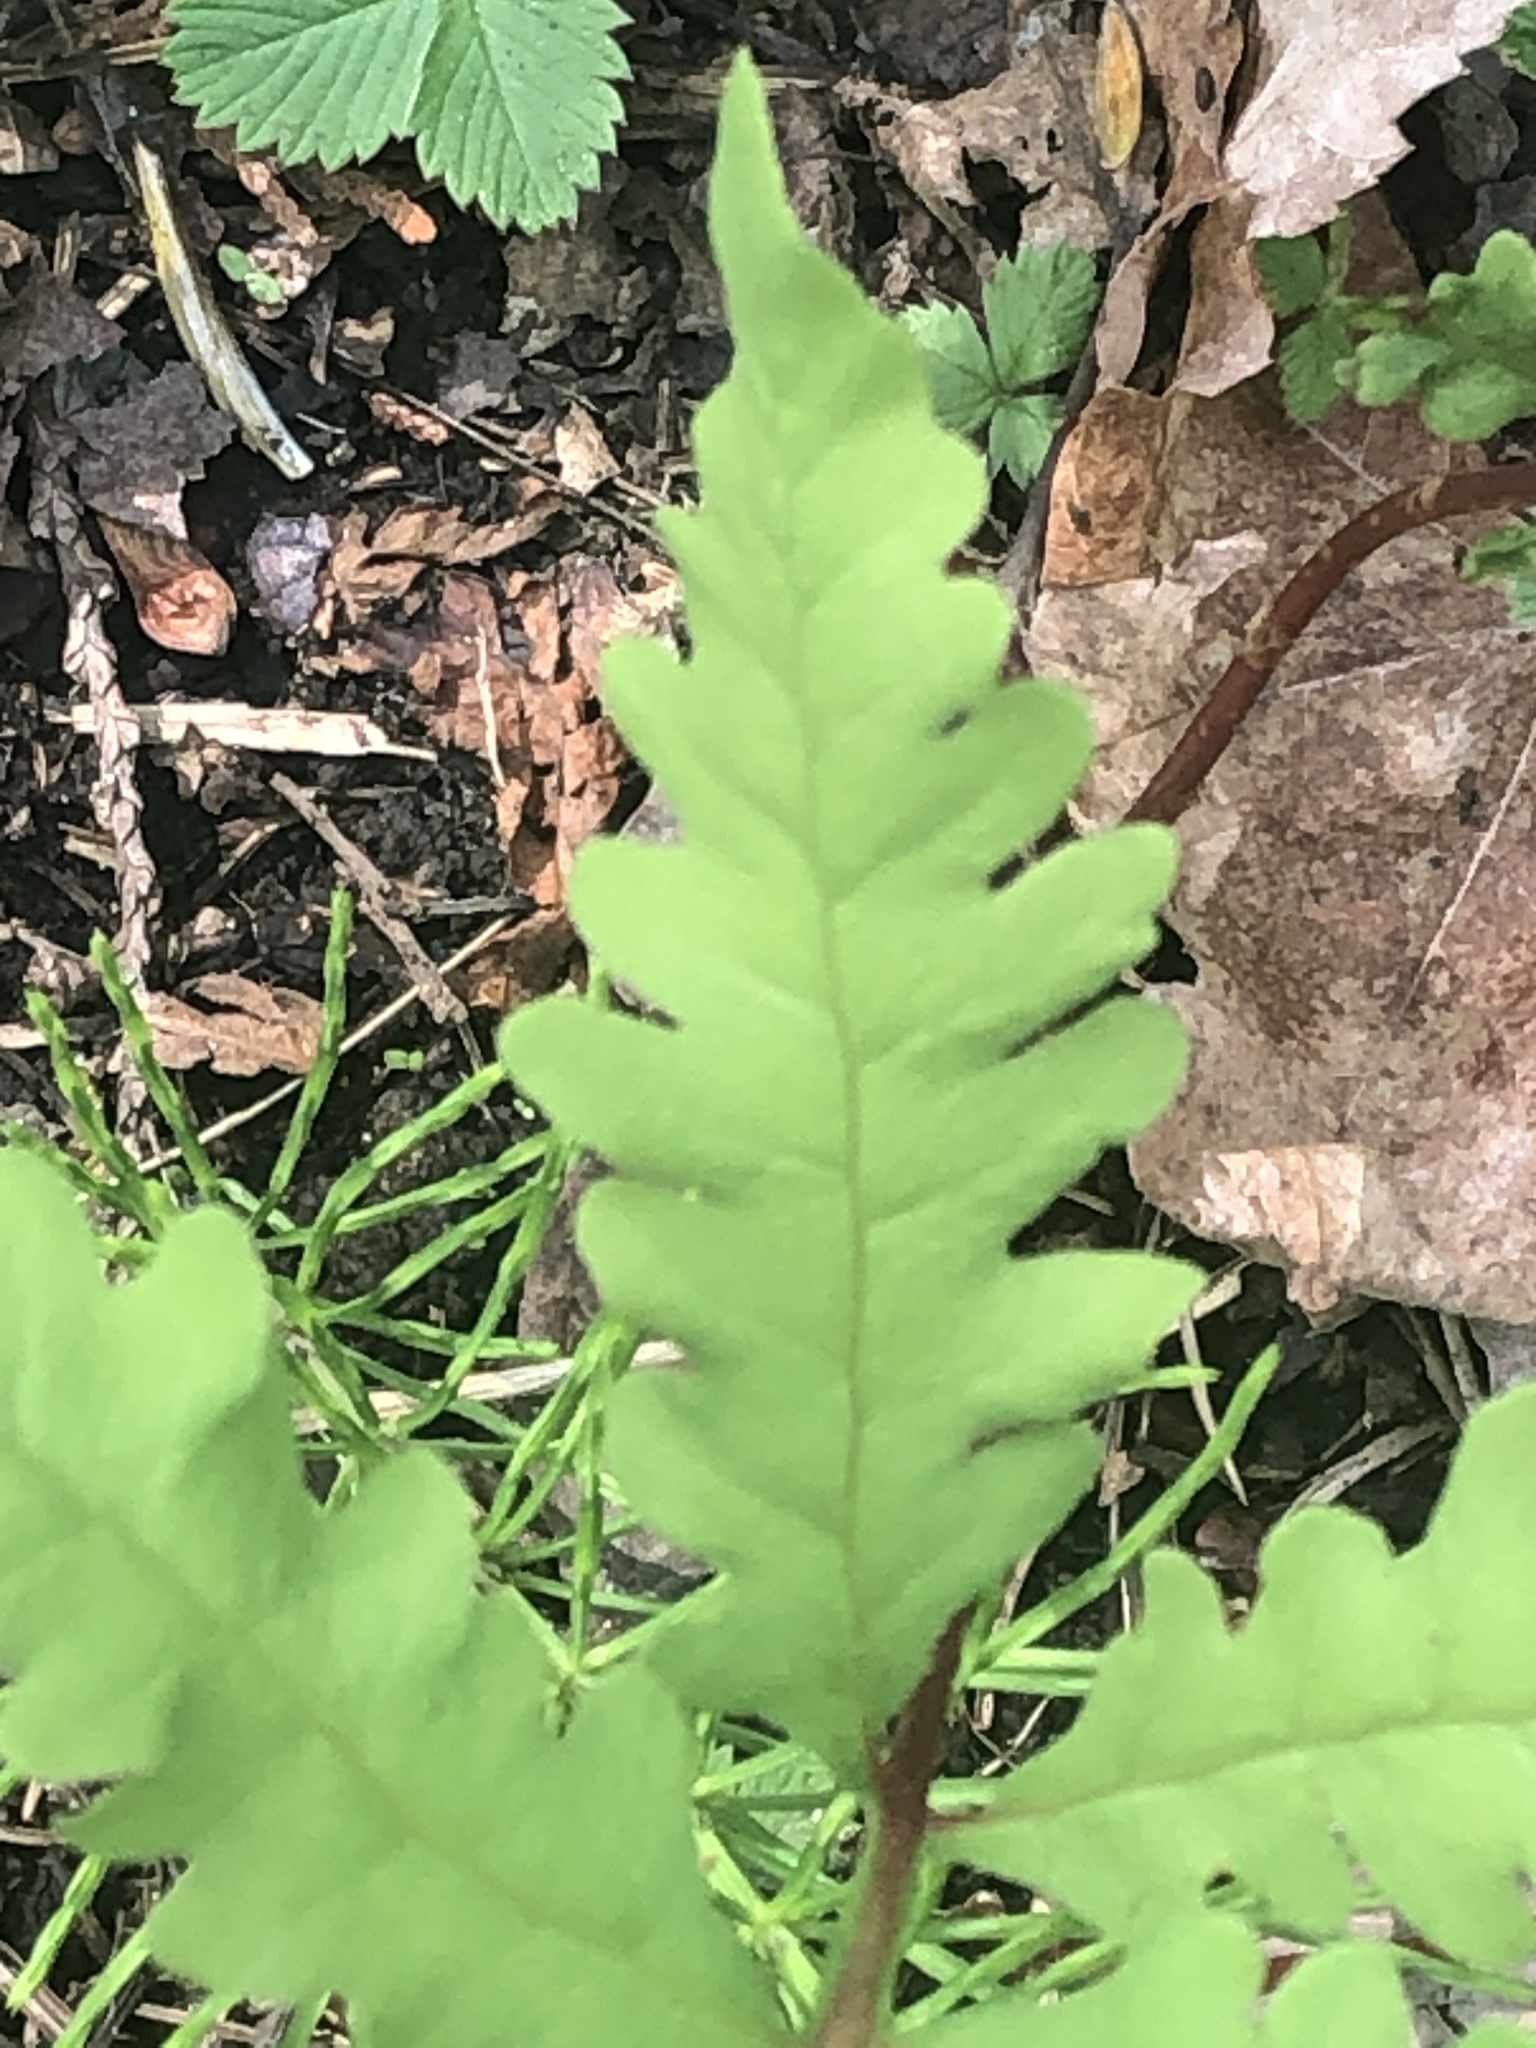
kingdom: Plantae
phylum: Tracheophyta
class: Polypodiopsida
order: Polypodiales
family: Onocleaceae
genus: Onoclea
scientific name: Onoclea sensibilis
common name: Sensitive fern
